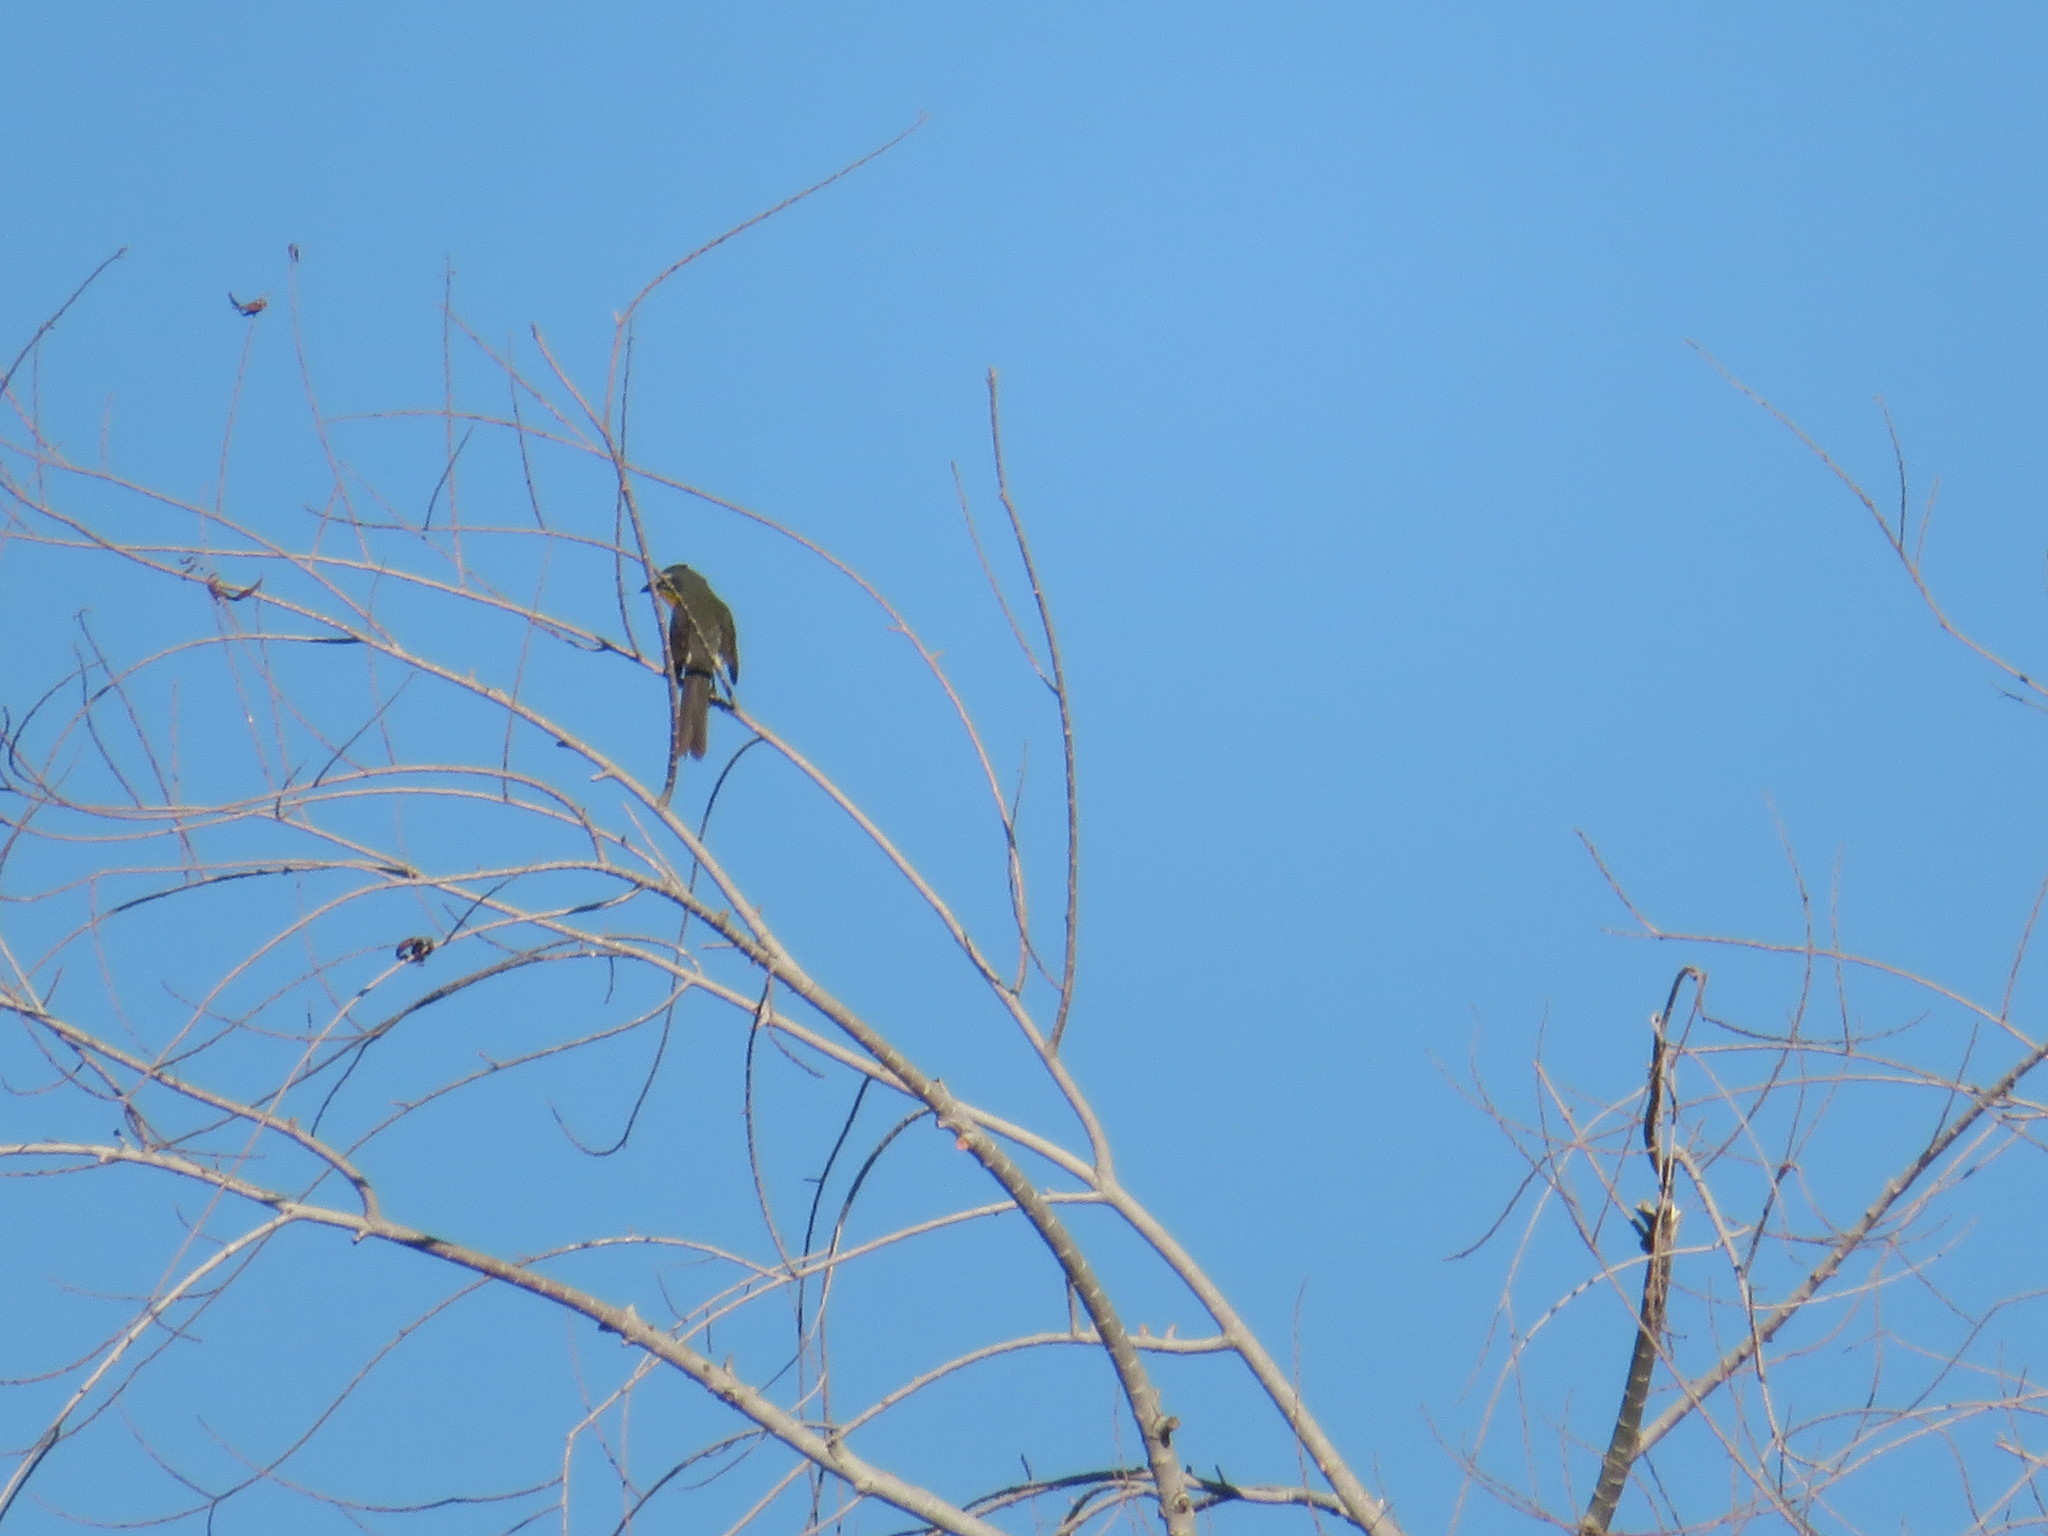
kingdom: Animalia
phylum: Chordata
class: Aves
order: Passeriformes
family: Parulidae
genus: Icteria
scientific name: Icteria virens
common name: Yellow-breasted chat
